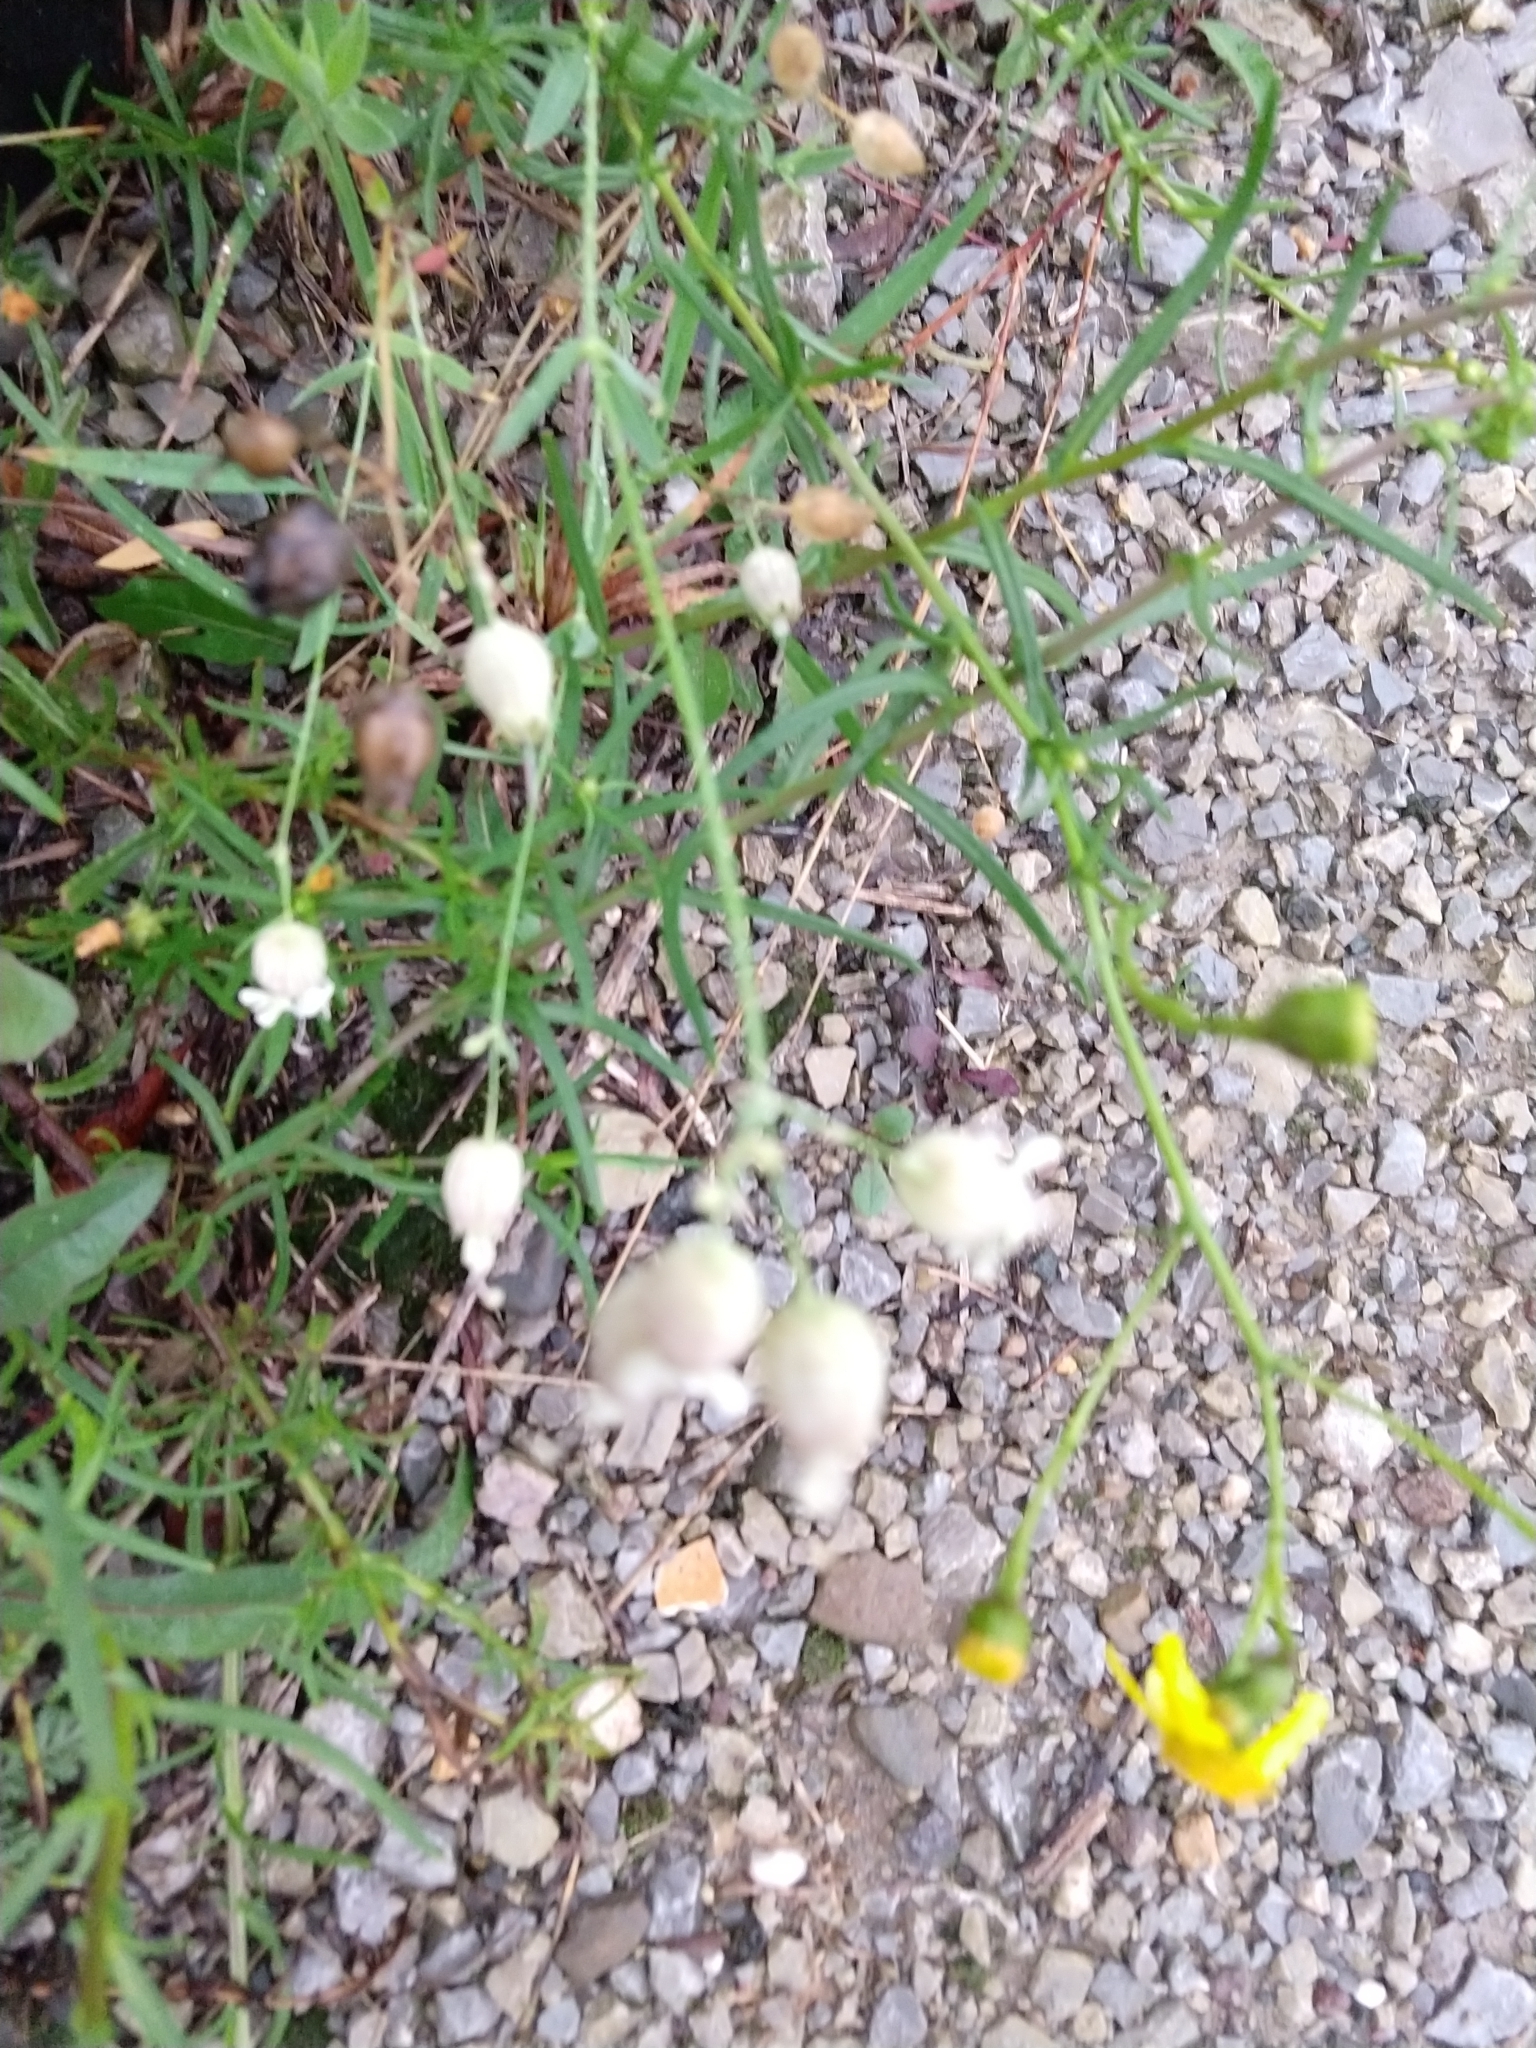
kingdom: Plantae
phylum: Tracheophyta
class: Magnoliopsida
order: Caryophyllales
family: Caryophyllaceae
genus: Silene
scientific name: Silene vulgaris
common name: Bladder campion
